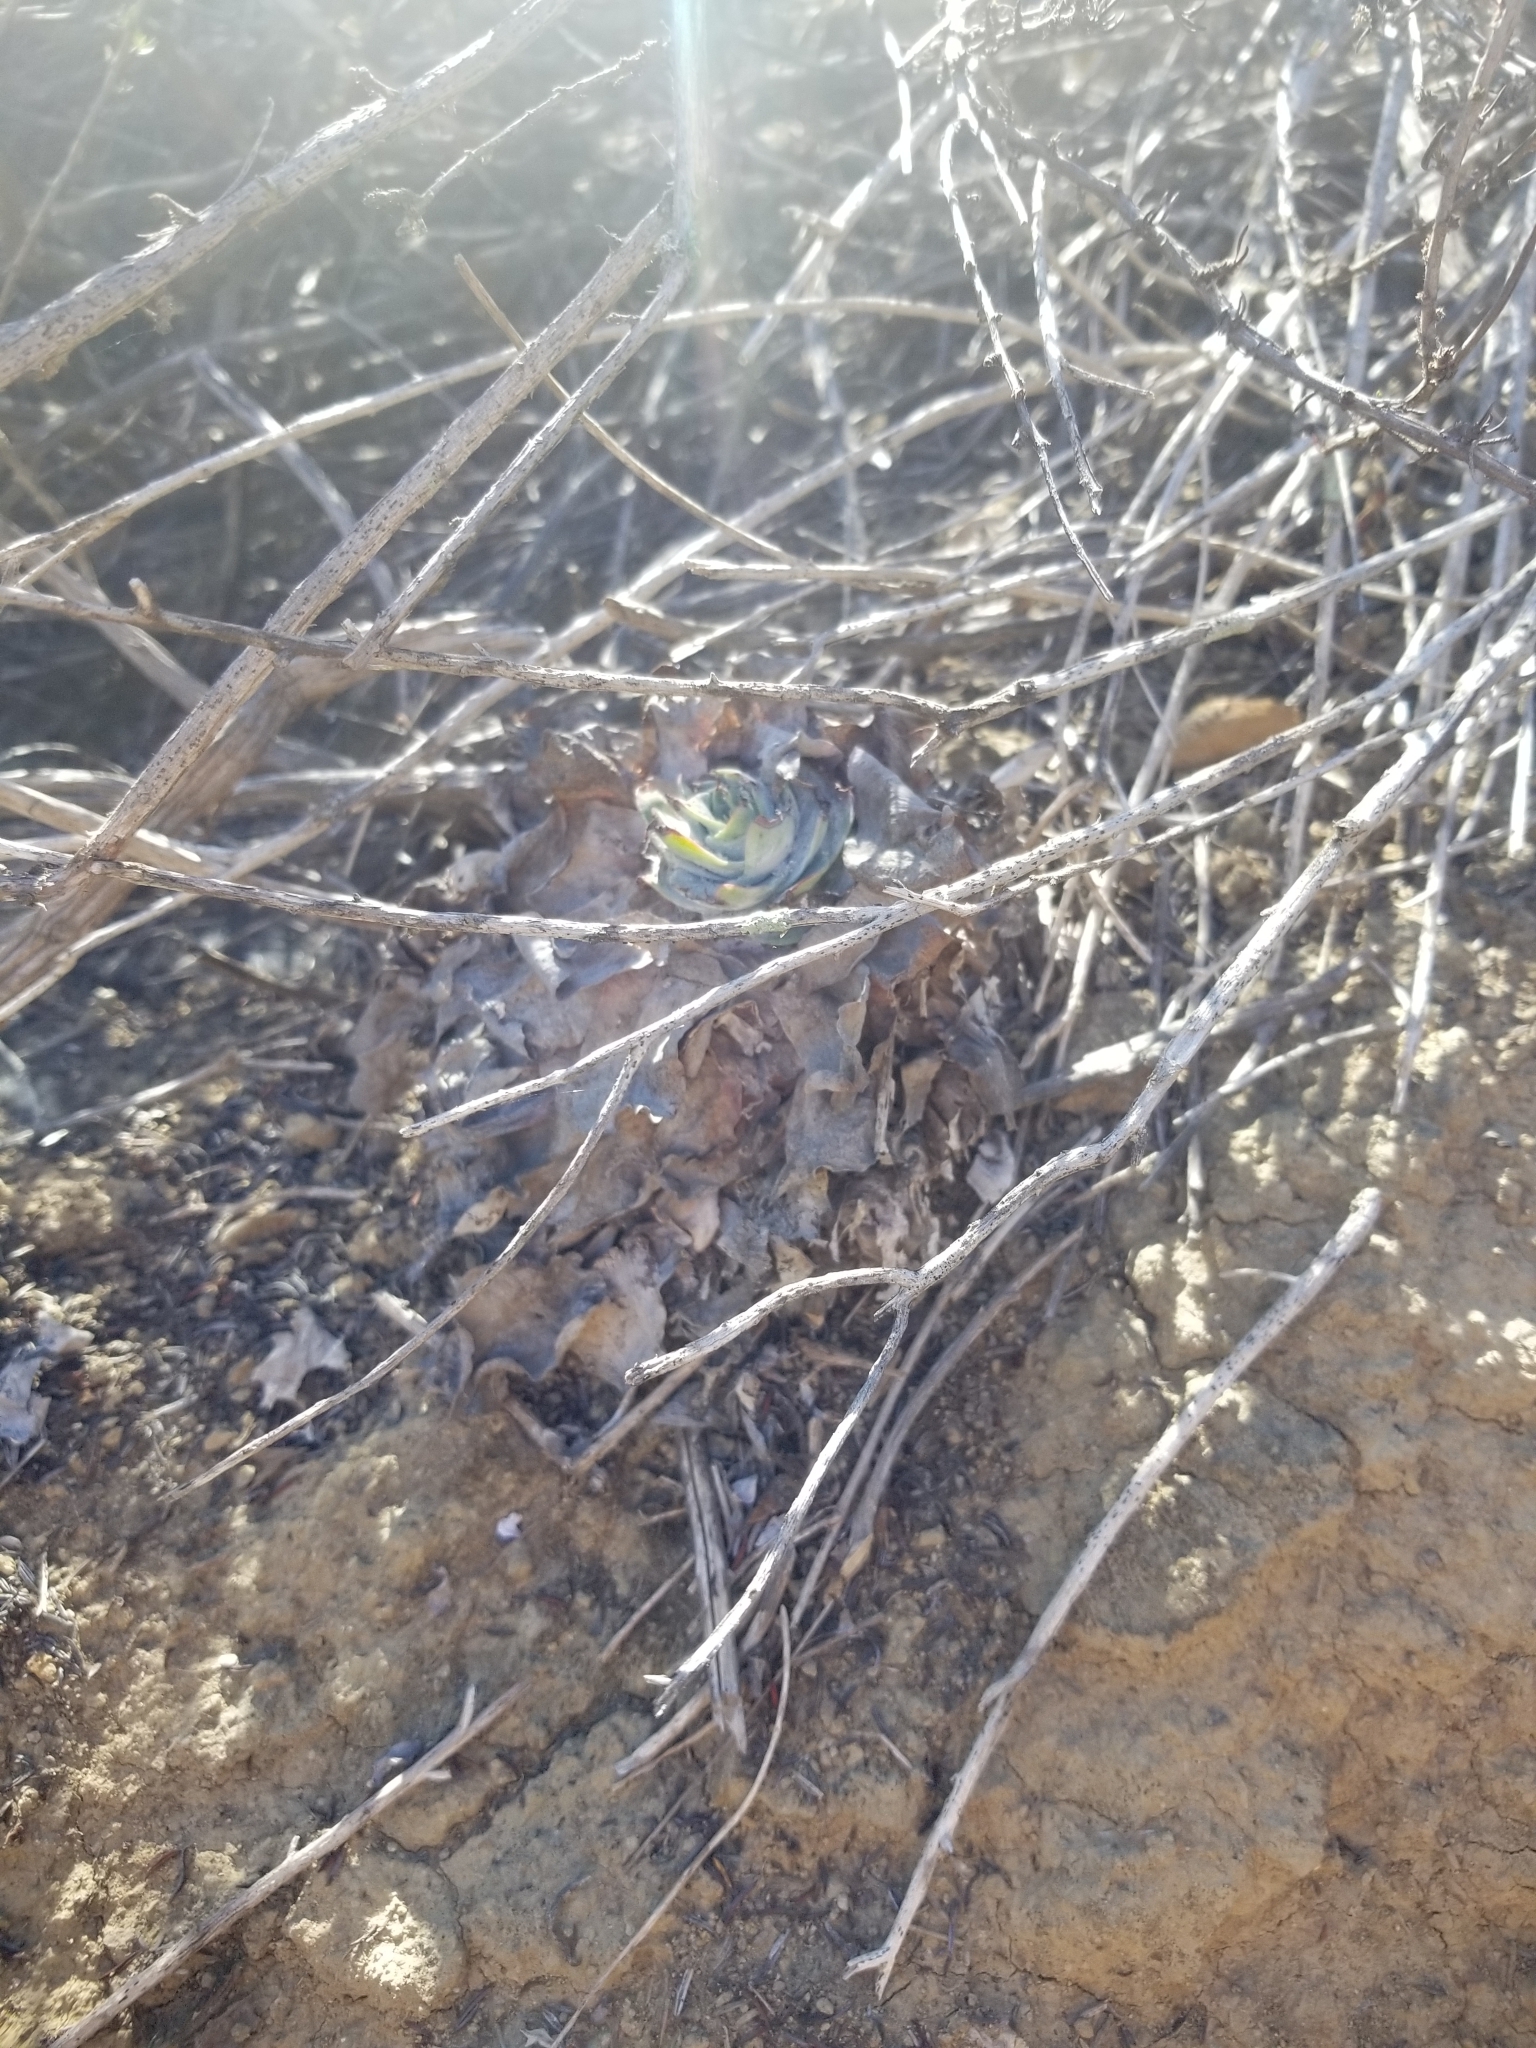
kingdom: Plantae
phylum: Tracheophyta
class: Magnoliopsida
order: Saxifragales
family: Crassulaceae
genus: Dudleya
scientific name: Dudleya pulverulenta
